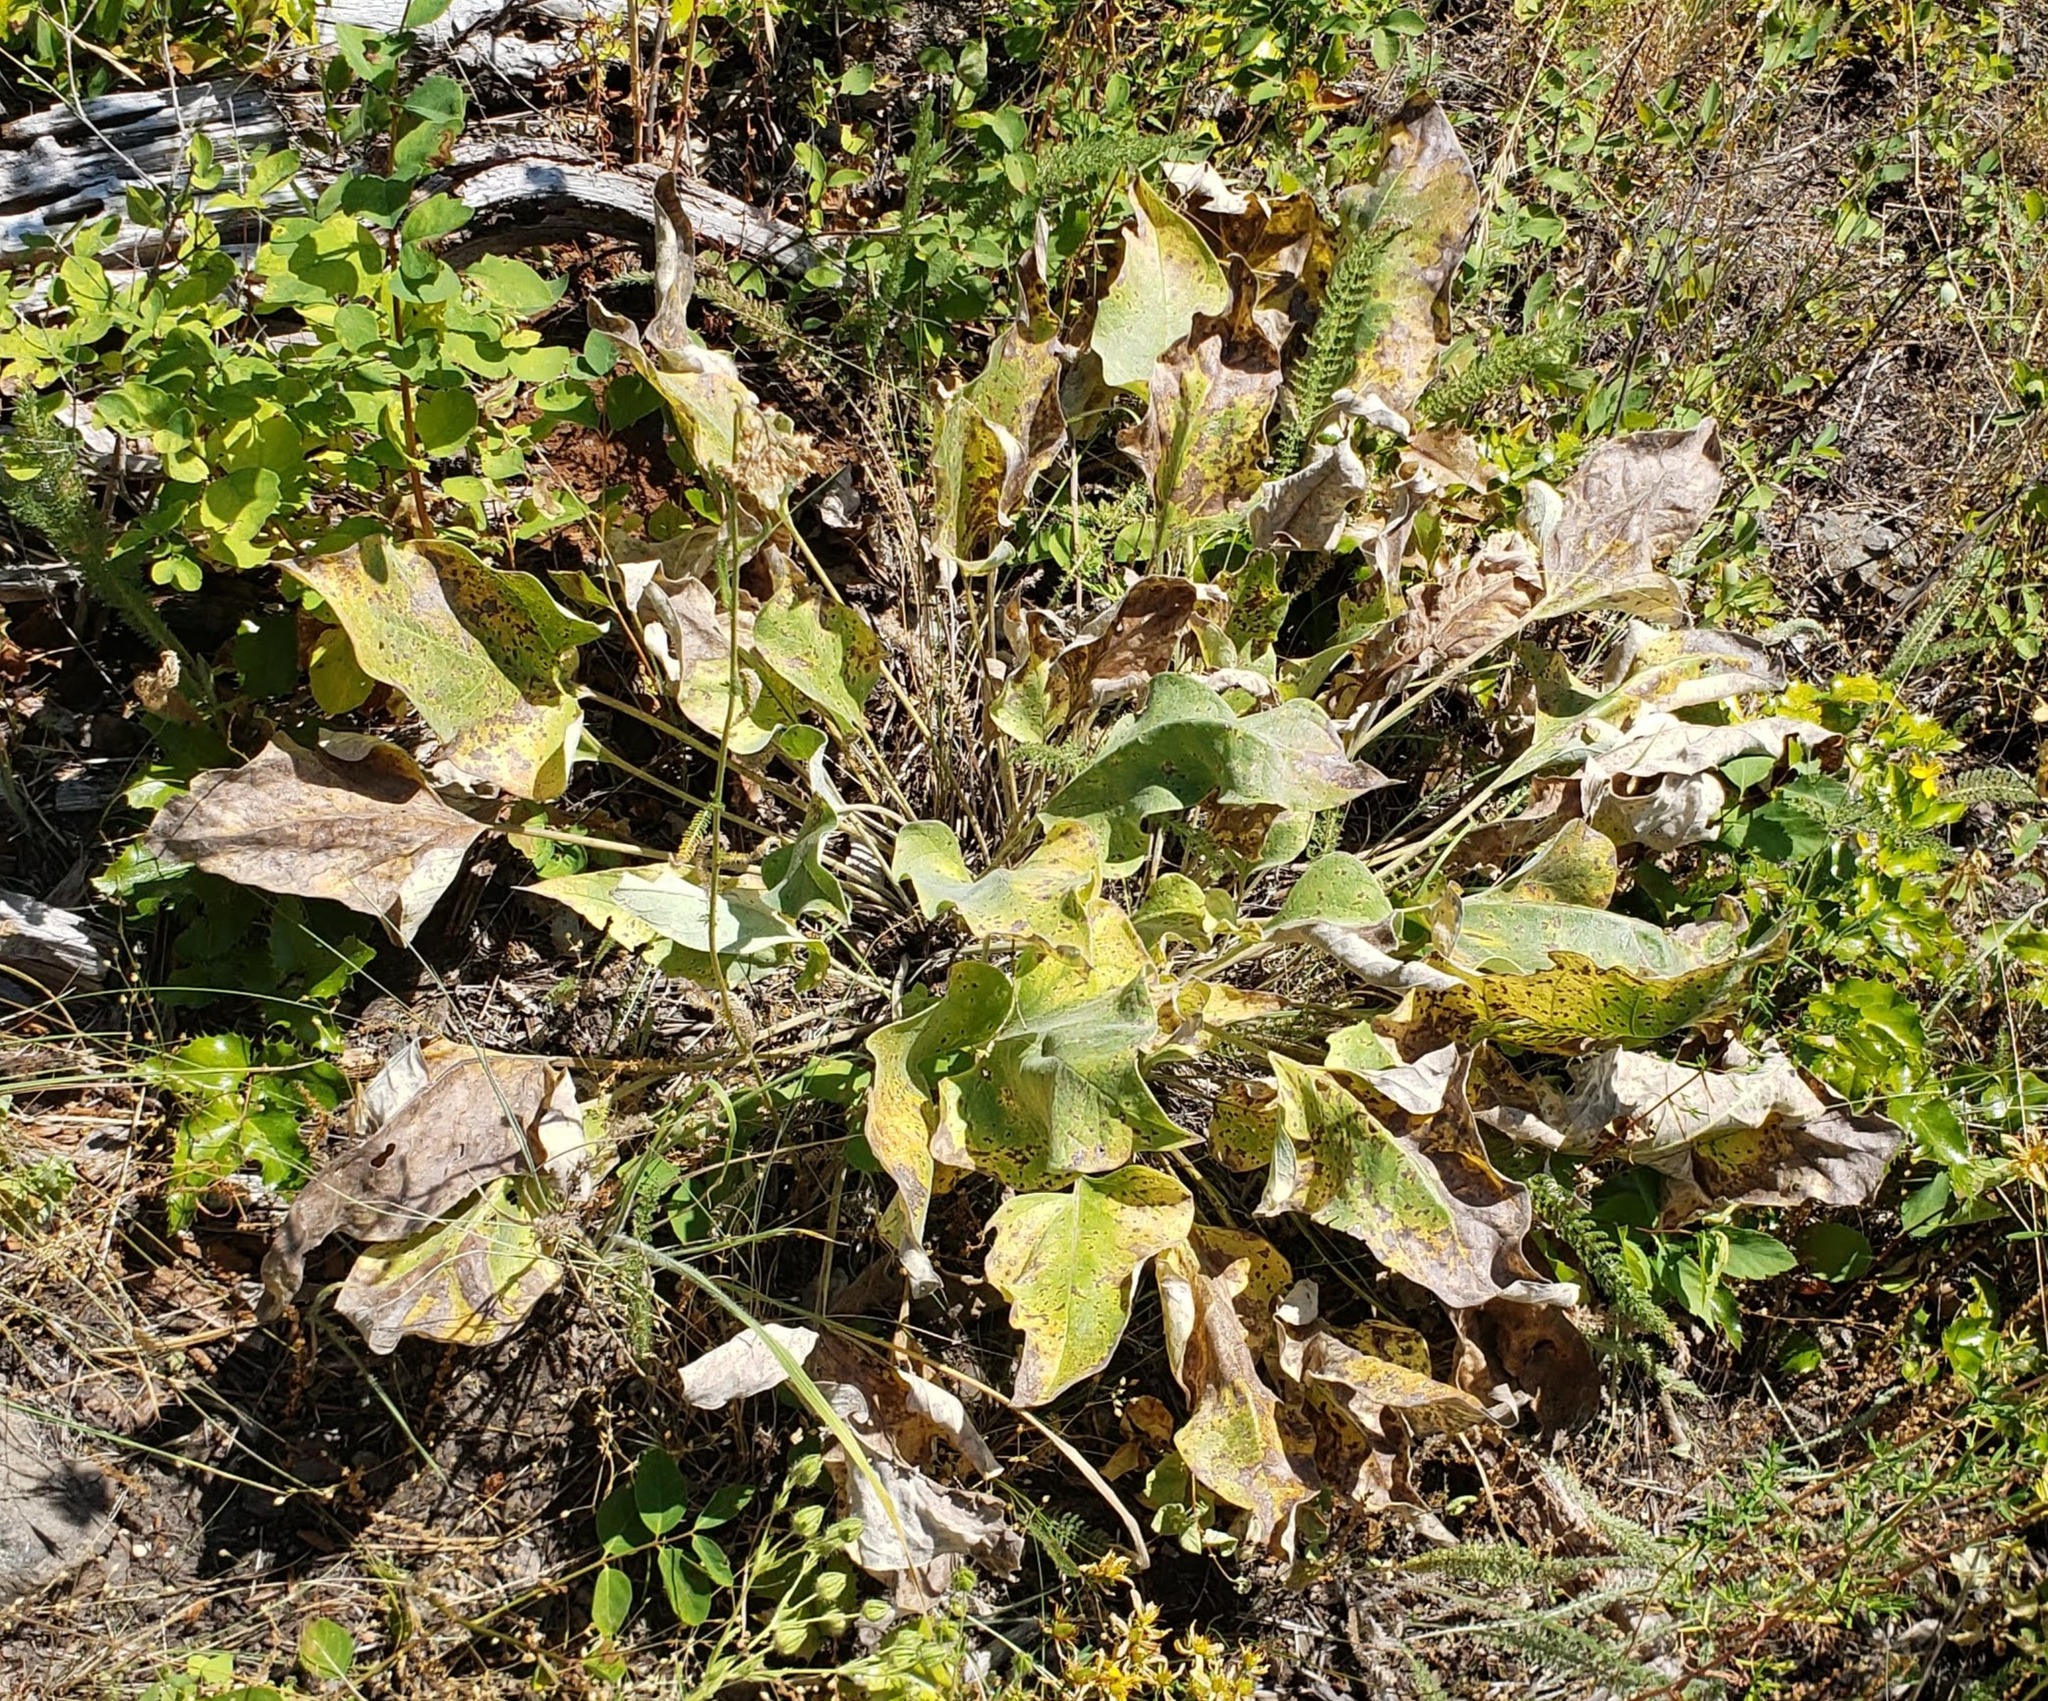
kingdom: Plantae
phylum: Tracheophyta
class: Magnoliopsida
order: Asterales
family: Asteraceae
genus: Wyethia
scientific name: Wyethia sagittata
